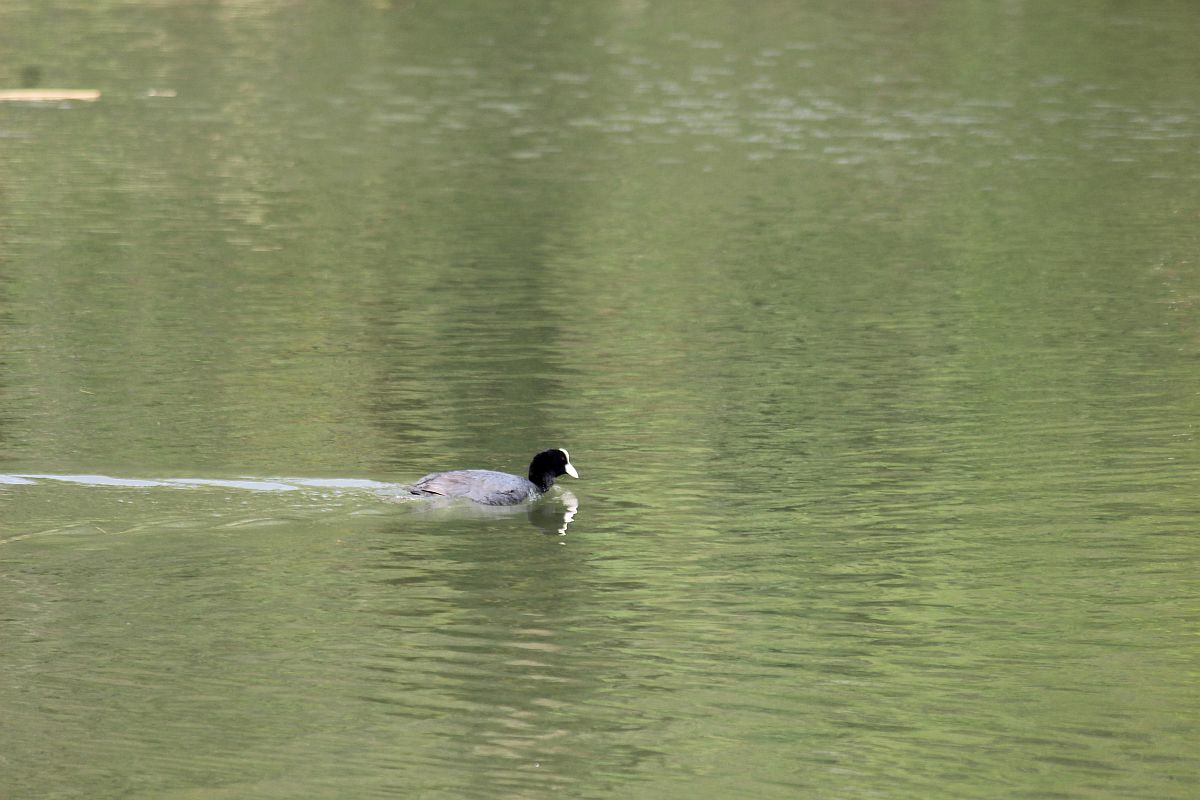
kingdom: Animalia
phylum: Chordata
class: Aves
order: Gruiformes
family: Rallidae
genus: Fulica
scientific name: Fulica atra
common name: Eurasian coot
